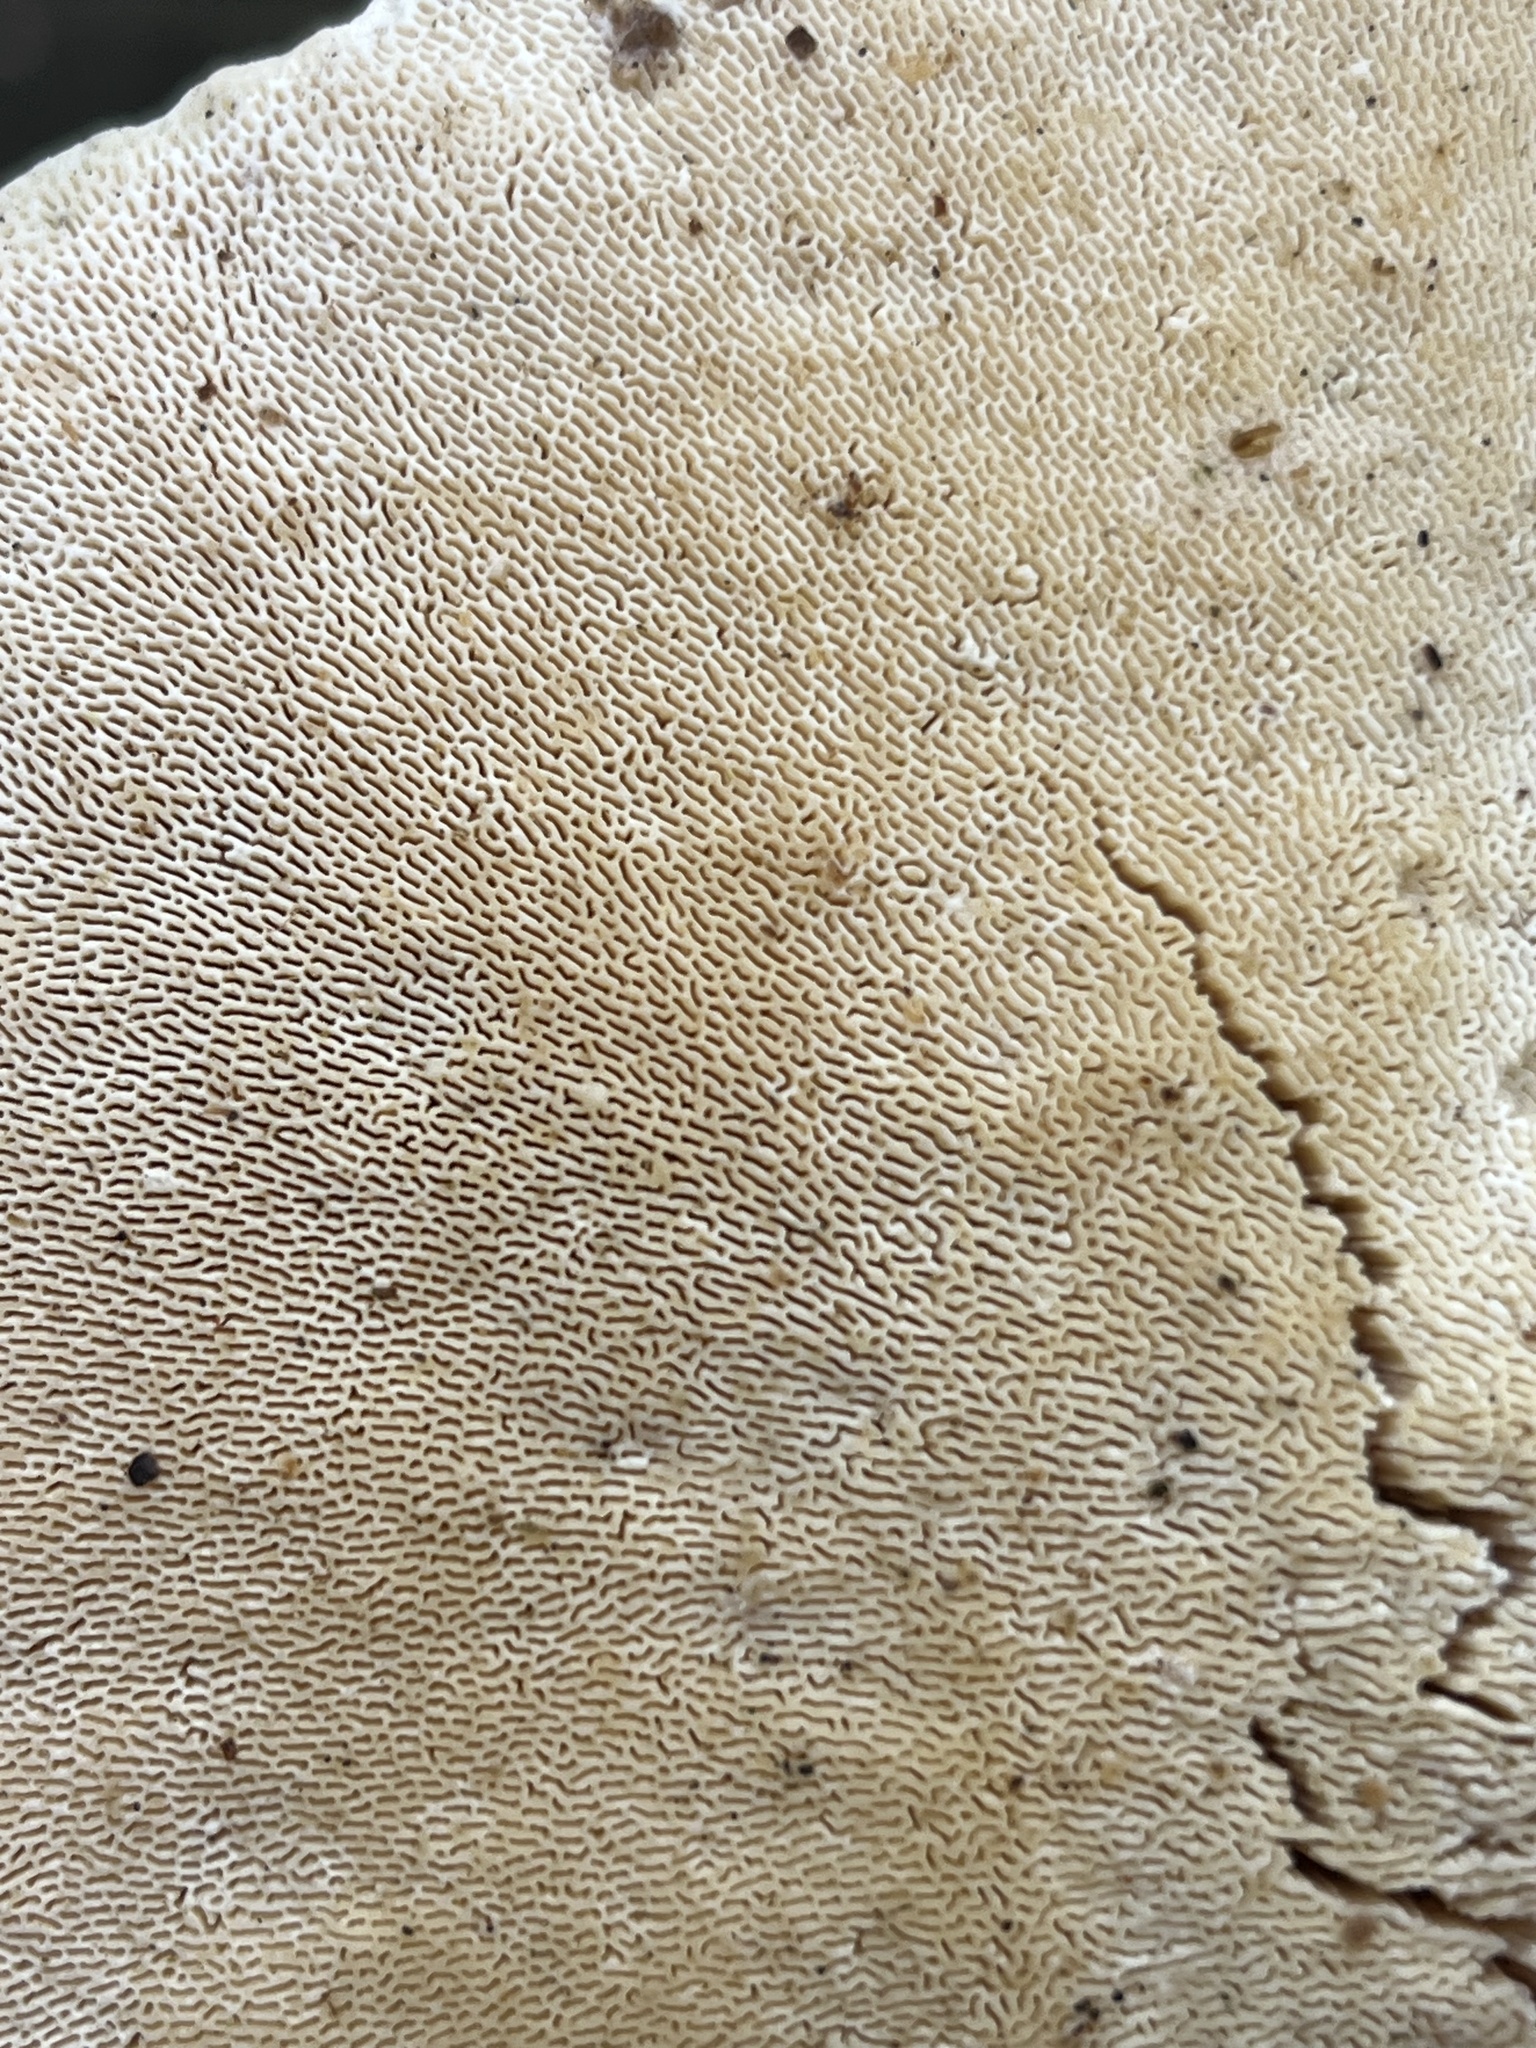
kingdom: Fungi
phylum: Basidiomycota
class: Agaricomycetes
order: Polyporales
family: Polyporaceae
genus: Trametes
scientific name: Trametes gibbosa
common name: Lumpy bracket
